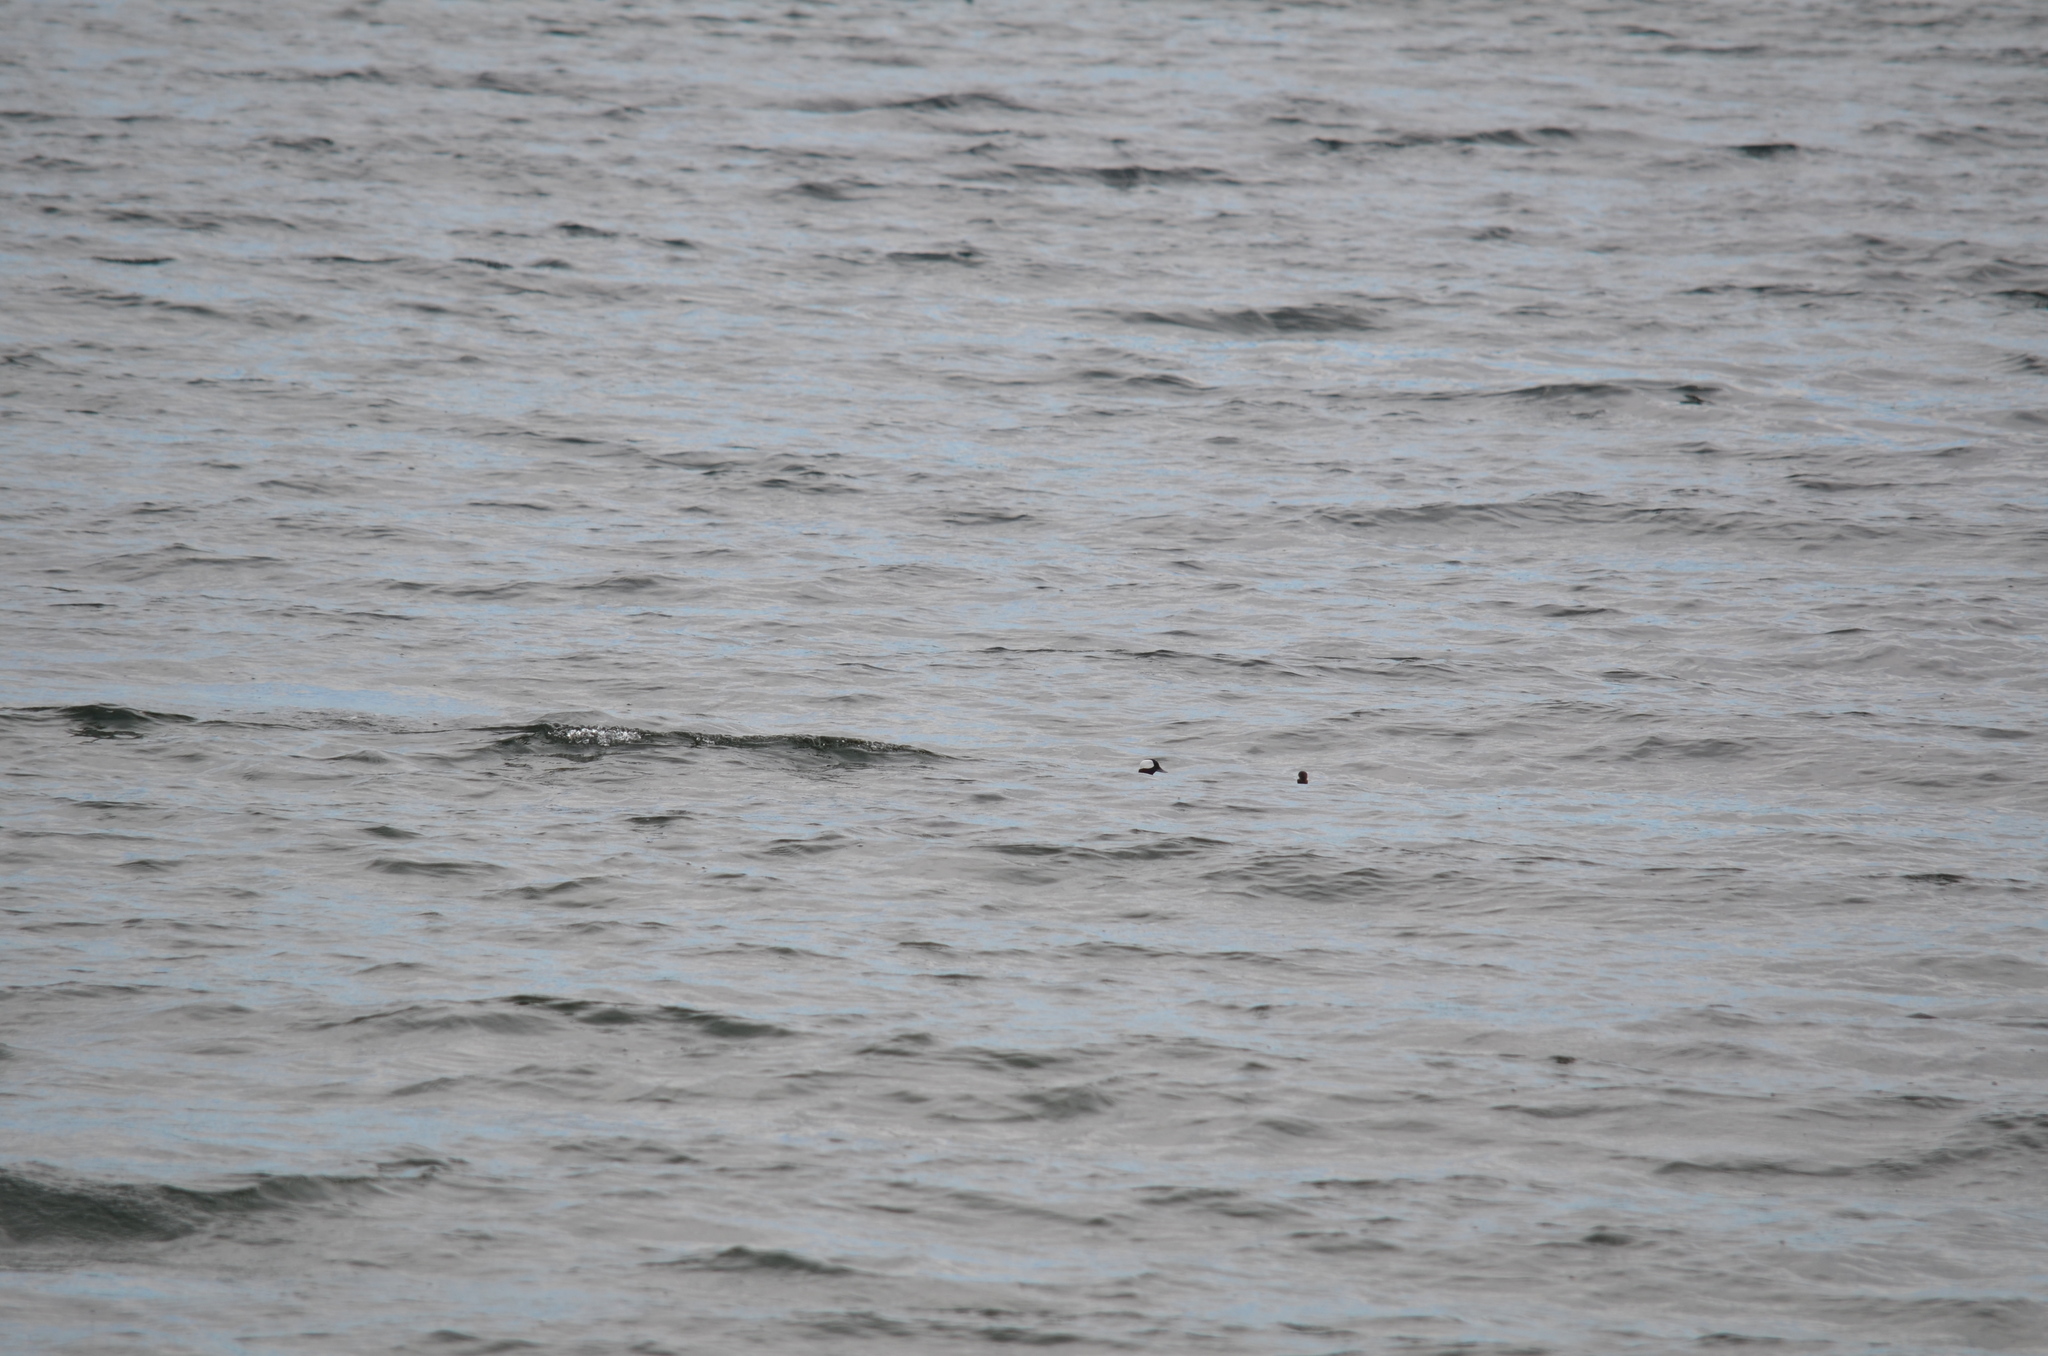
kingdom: Animalia
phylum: Chordata
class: Aves
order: Anseriformes
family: Anatidae
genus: Bucephala
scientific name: Bucephala albeola
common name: Bufflehead
